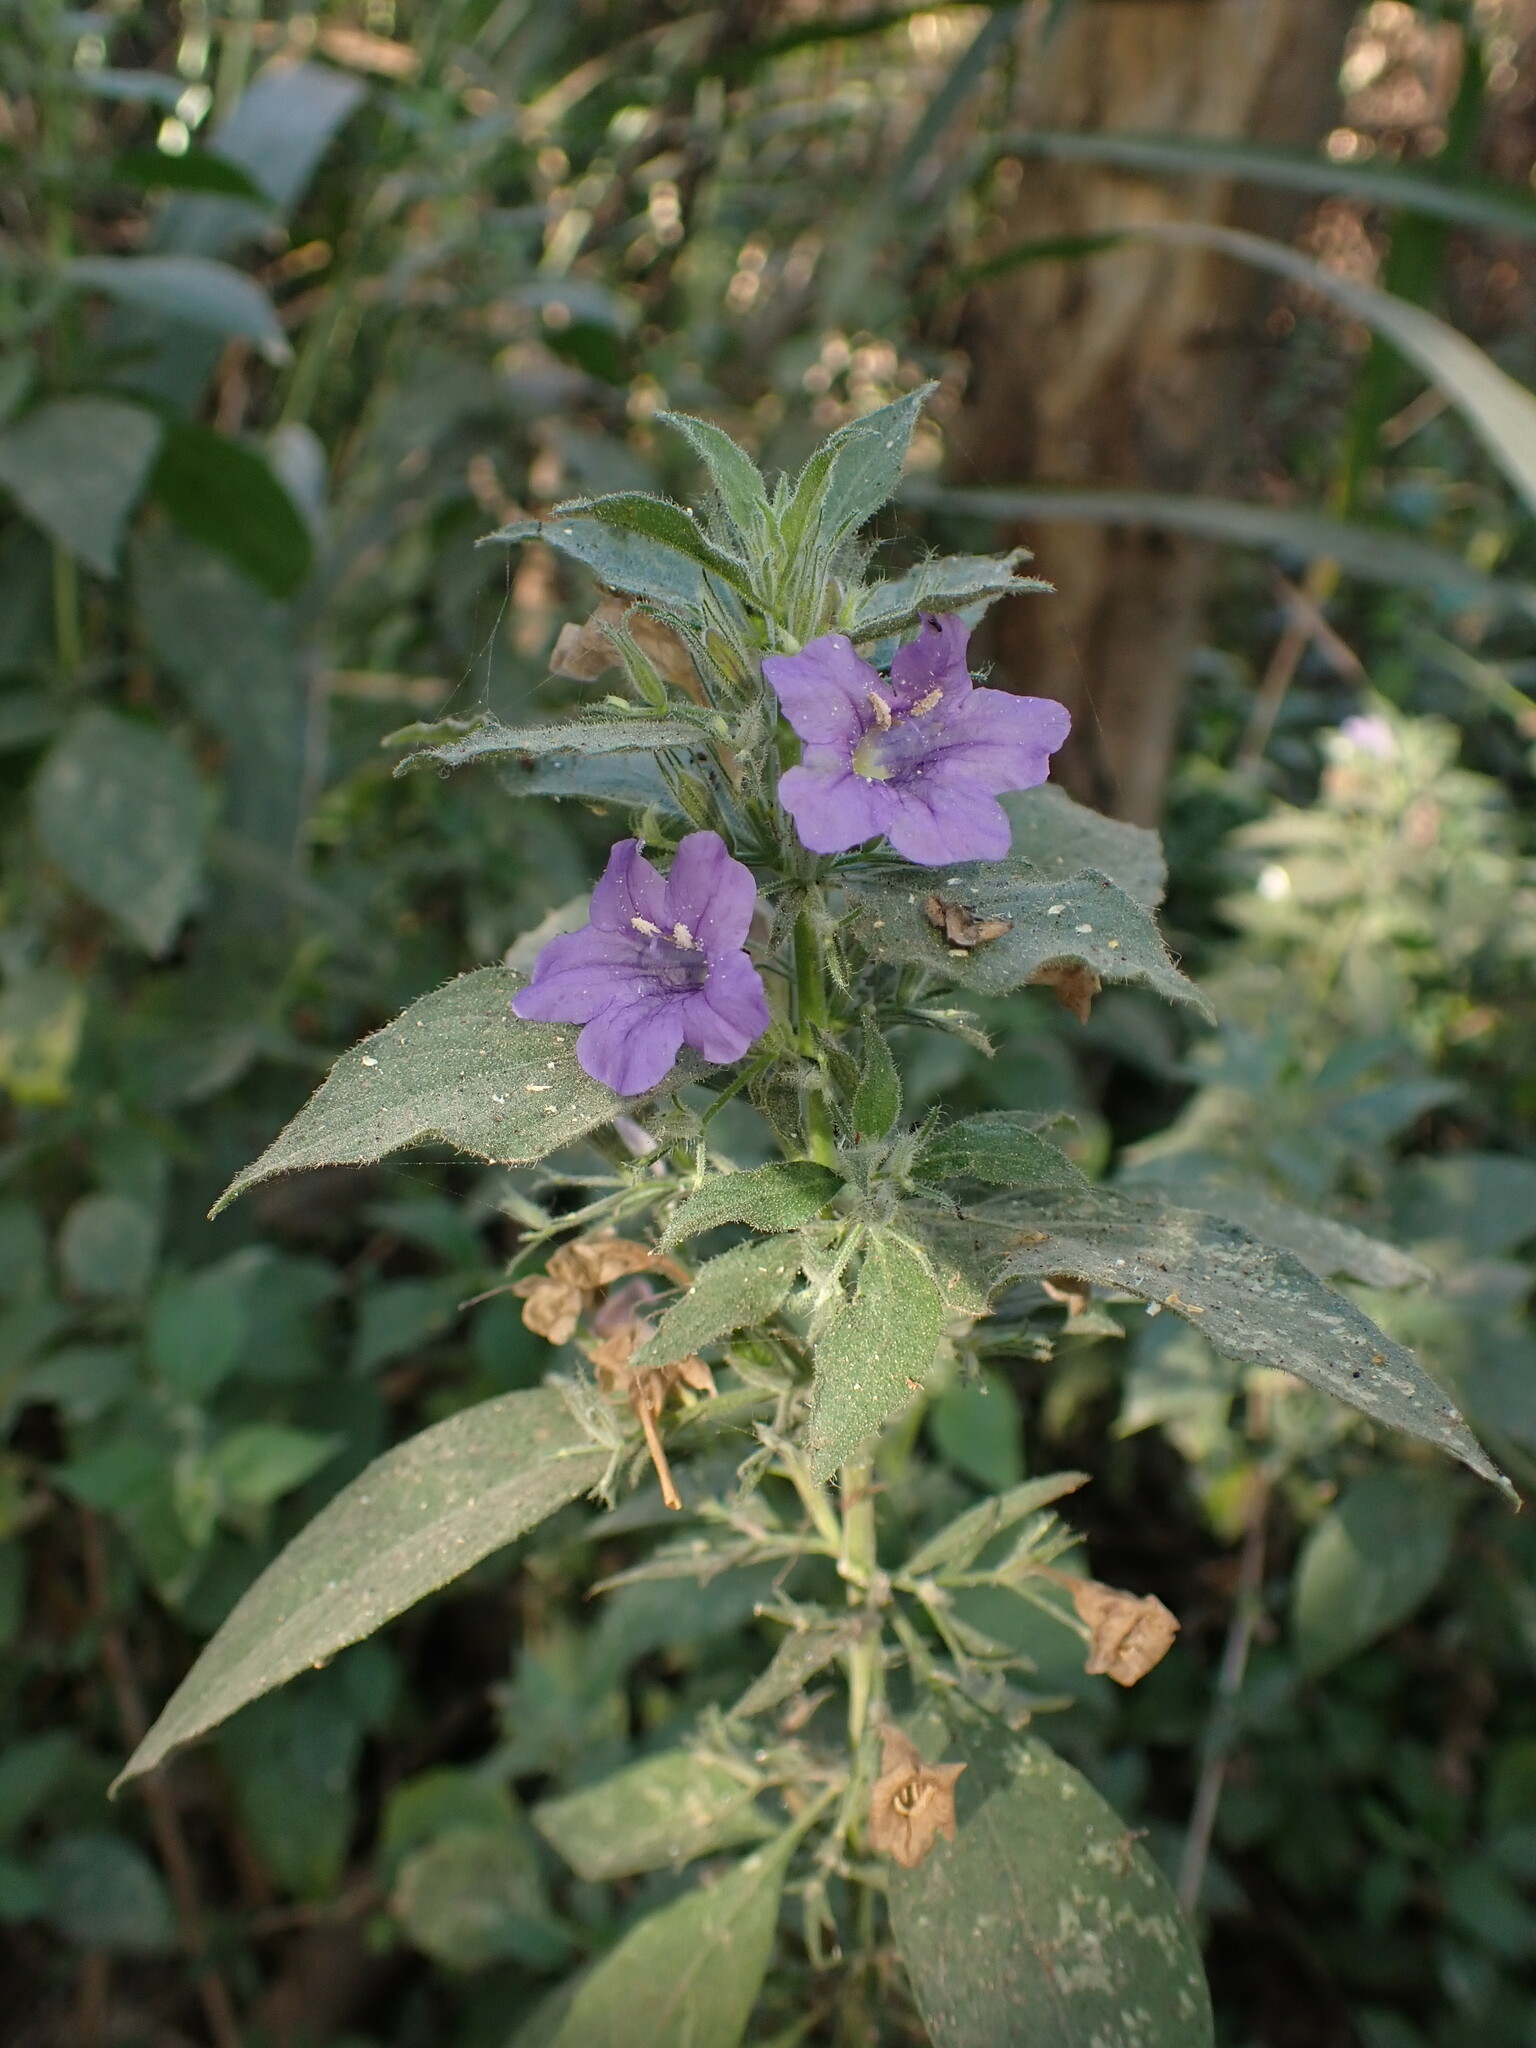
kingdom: Plantae
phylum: Tracheophyta
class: Magnoliopsida
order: Lamiales
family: Acanthaceae
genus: Ruellia
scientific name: Ruellia paniculata
